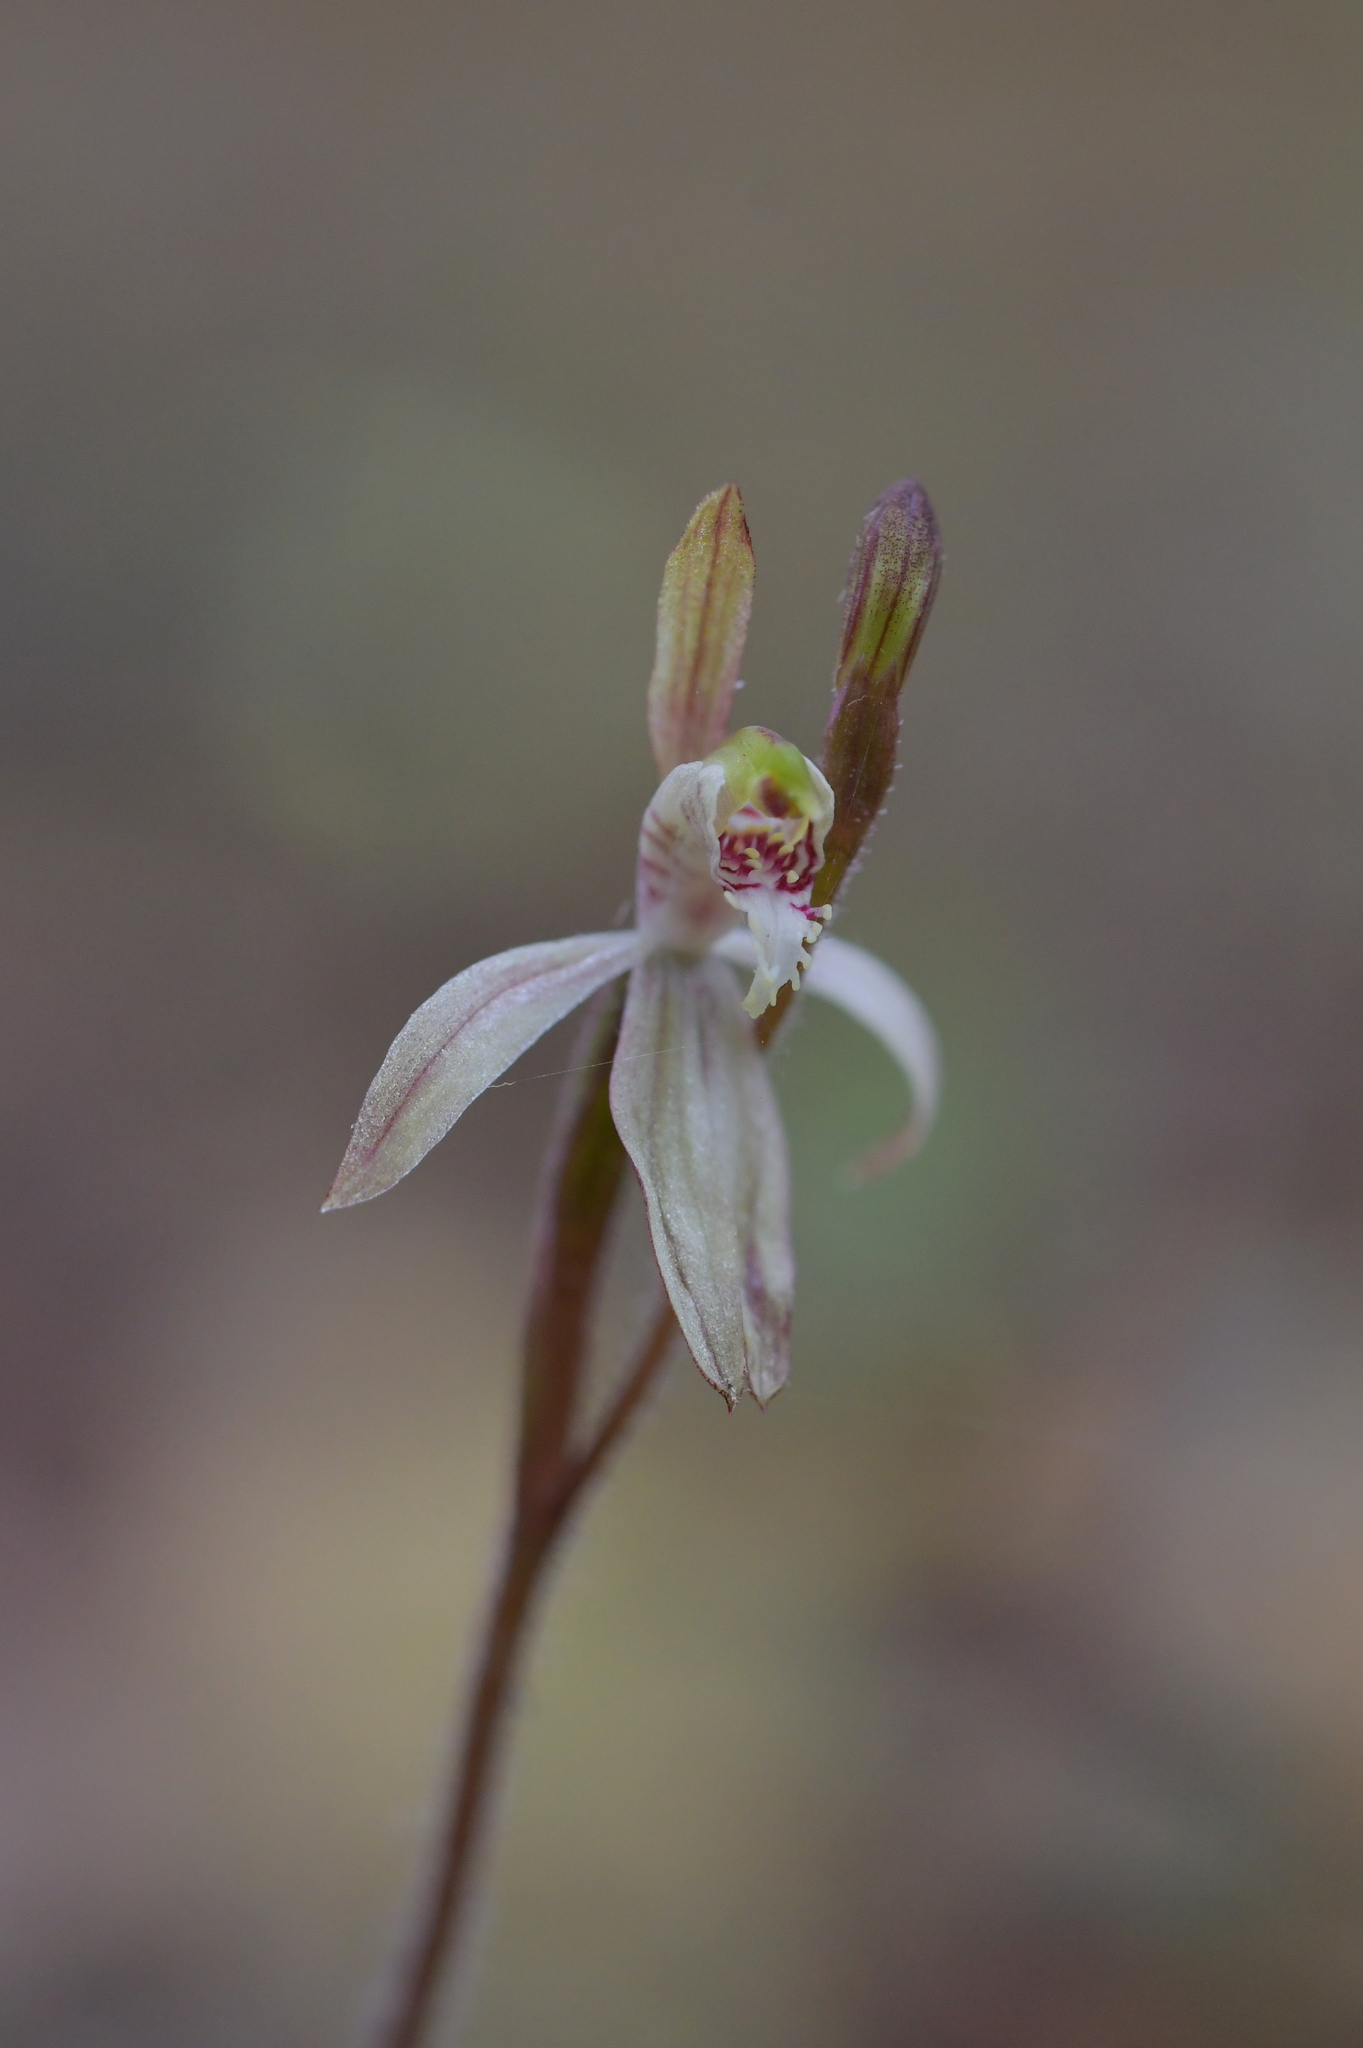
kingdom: Plantae
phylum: Tracheophyta
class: Liliopsida
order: Asparagales
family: Orchidaceae
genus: Caladenia
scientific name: Caladenia chlorostyla
